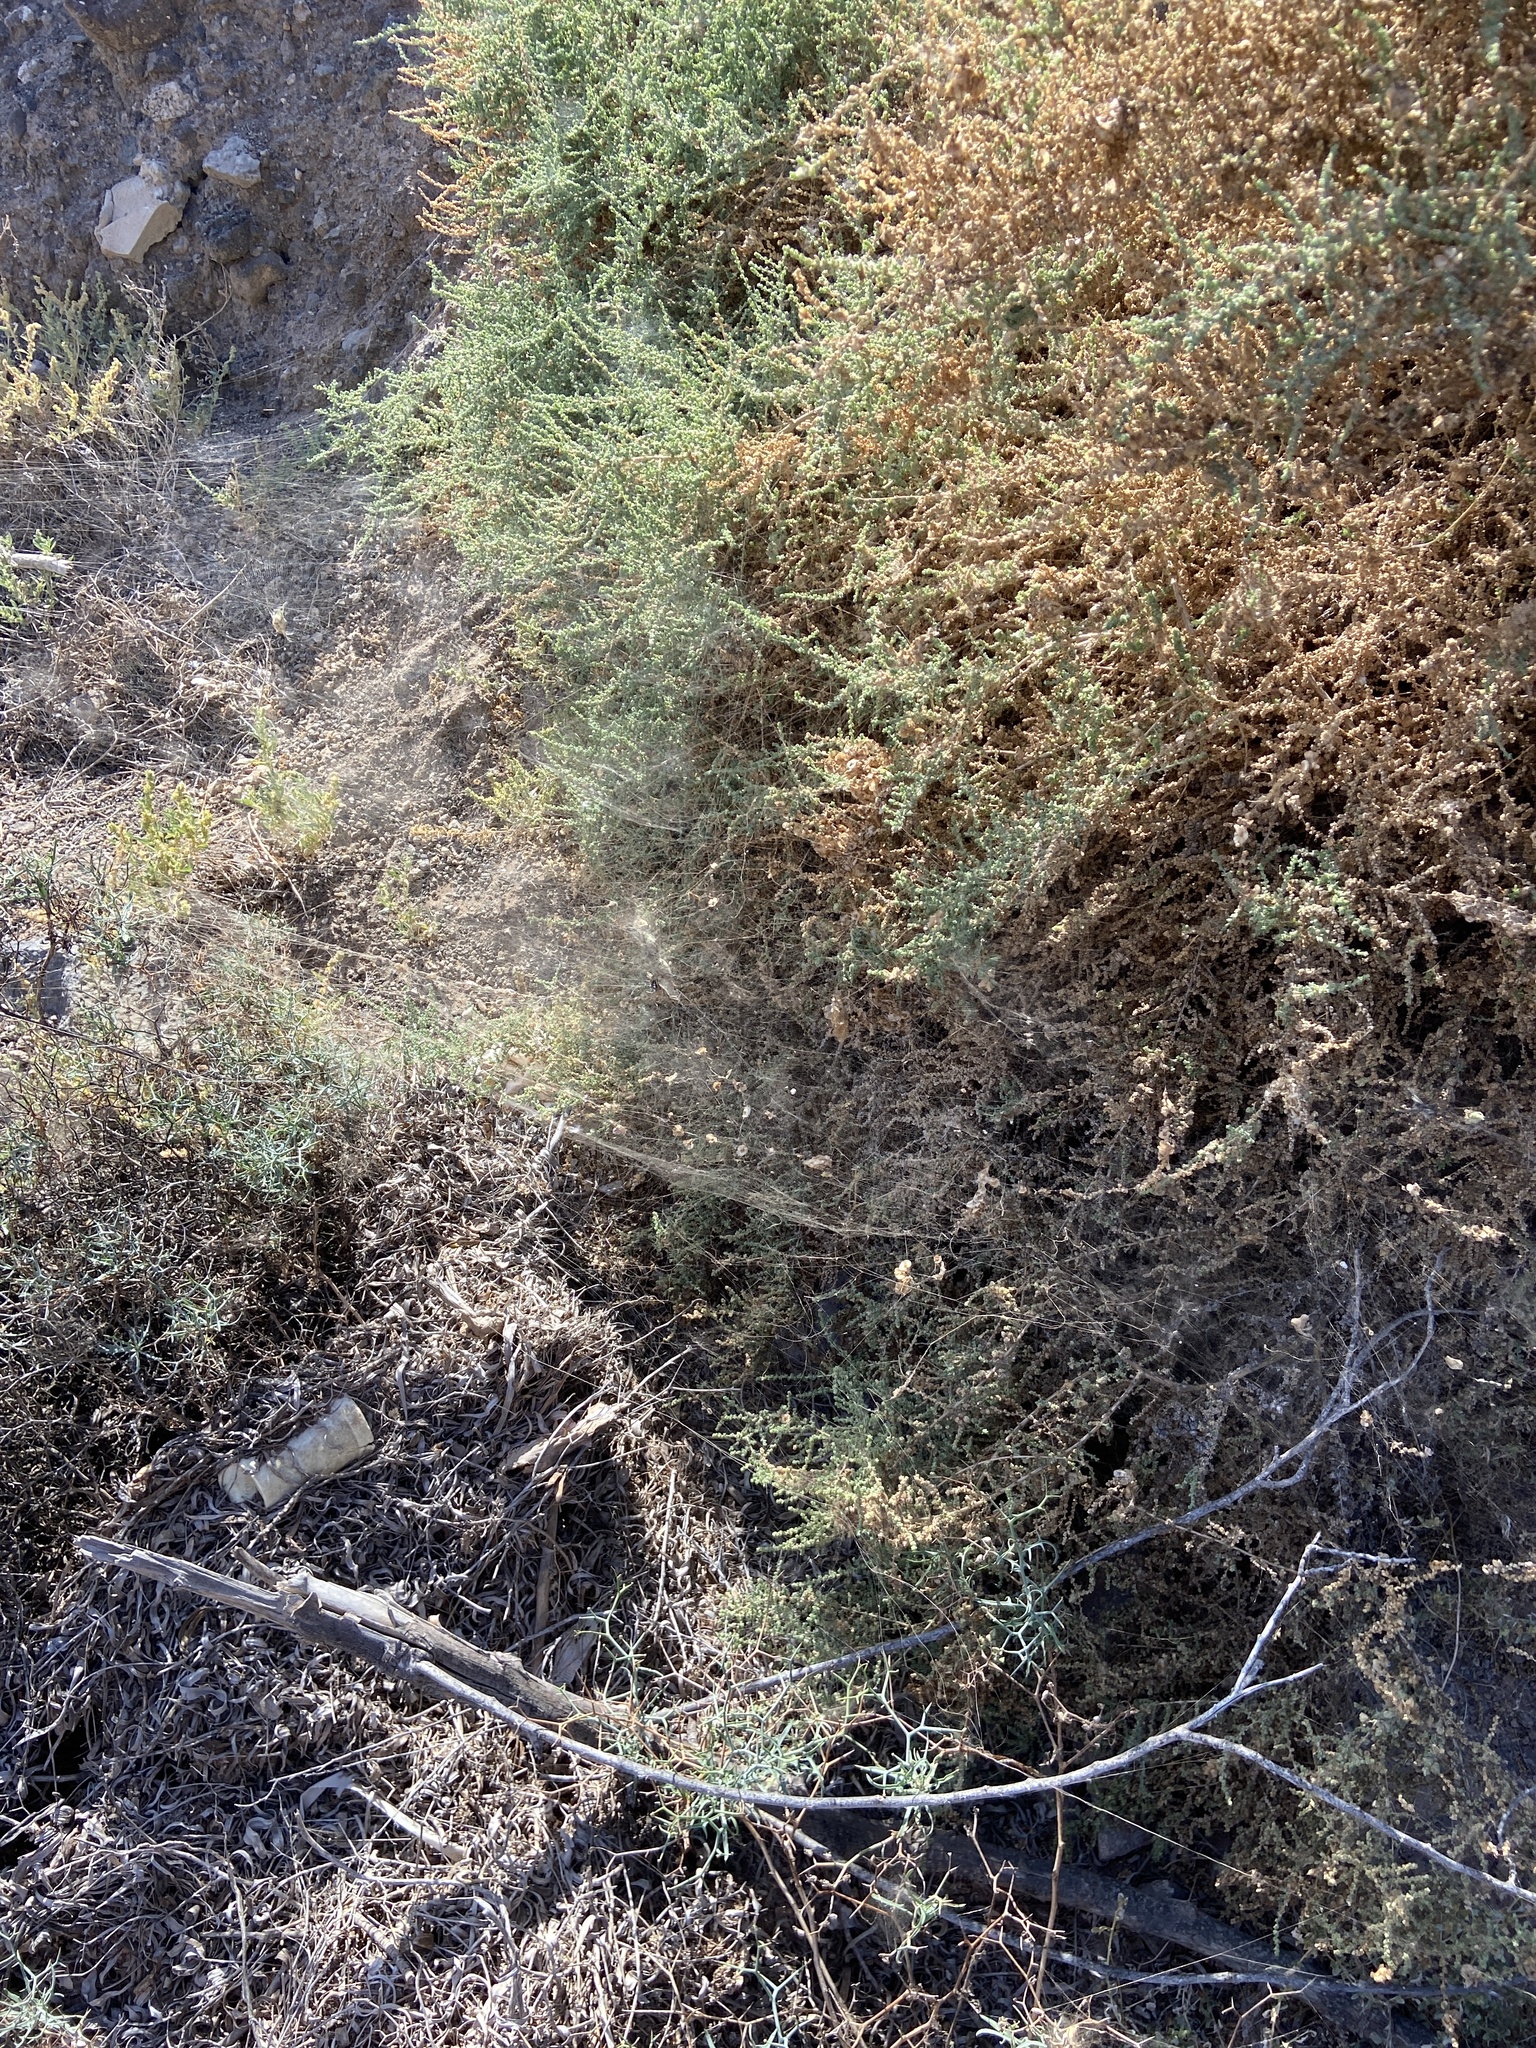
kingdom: Animalia
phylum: Arthropoda
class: Arachnida
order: Araneae
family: Araneidae
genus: Cyrtophora
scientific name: Cyrtophora citricola
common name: Orb weavers
